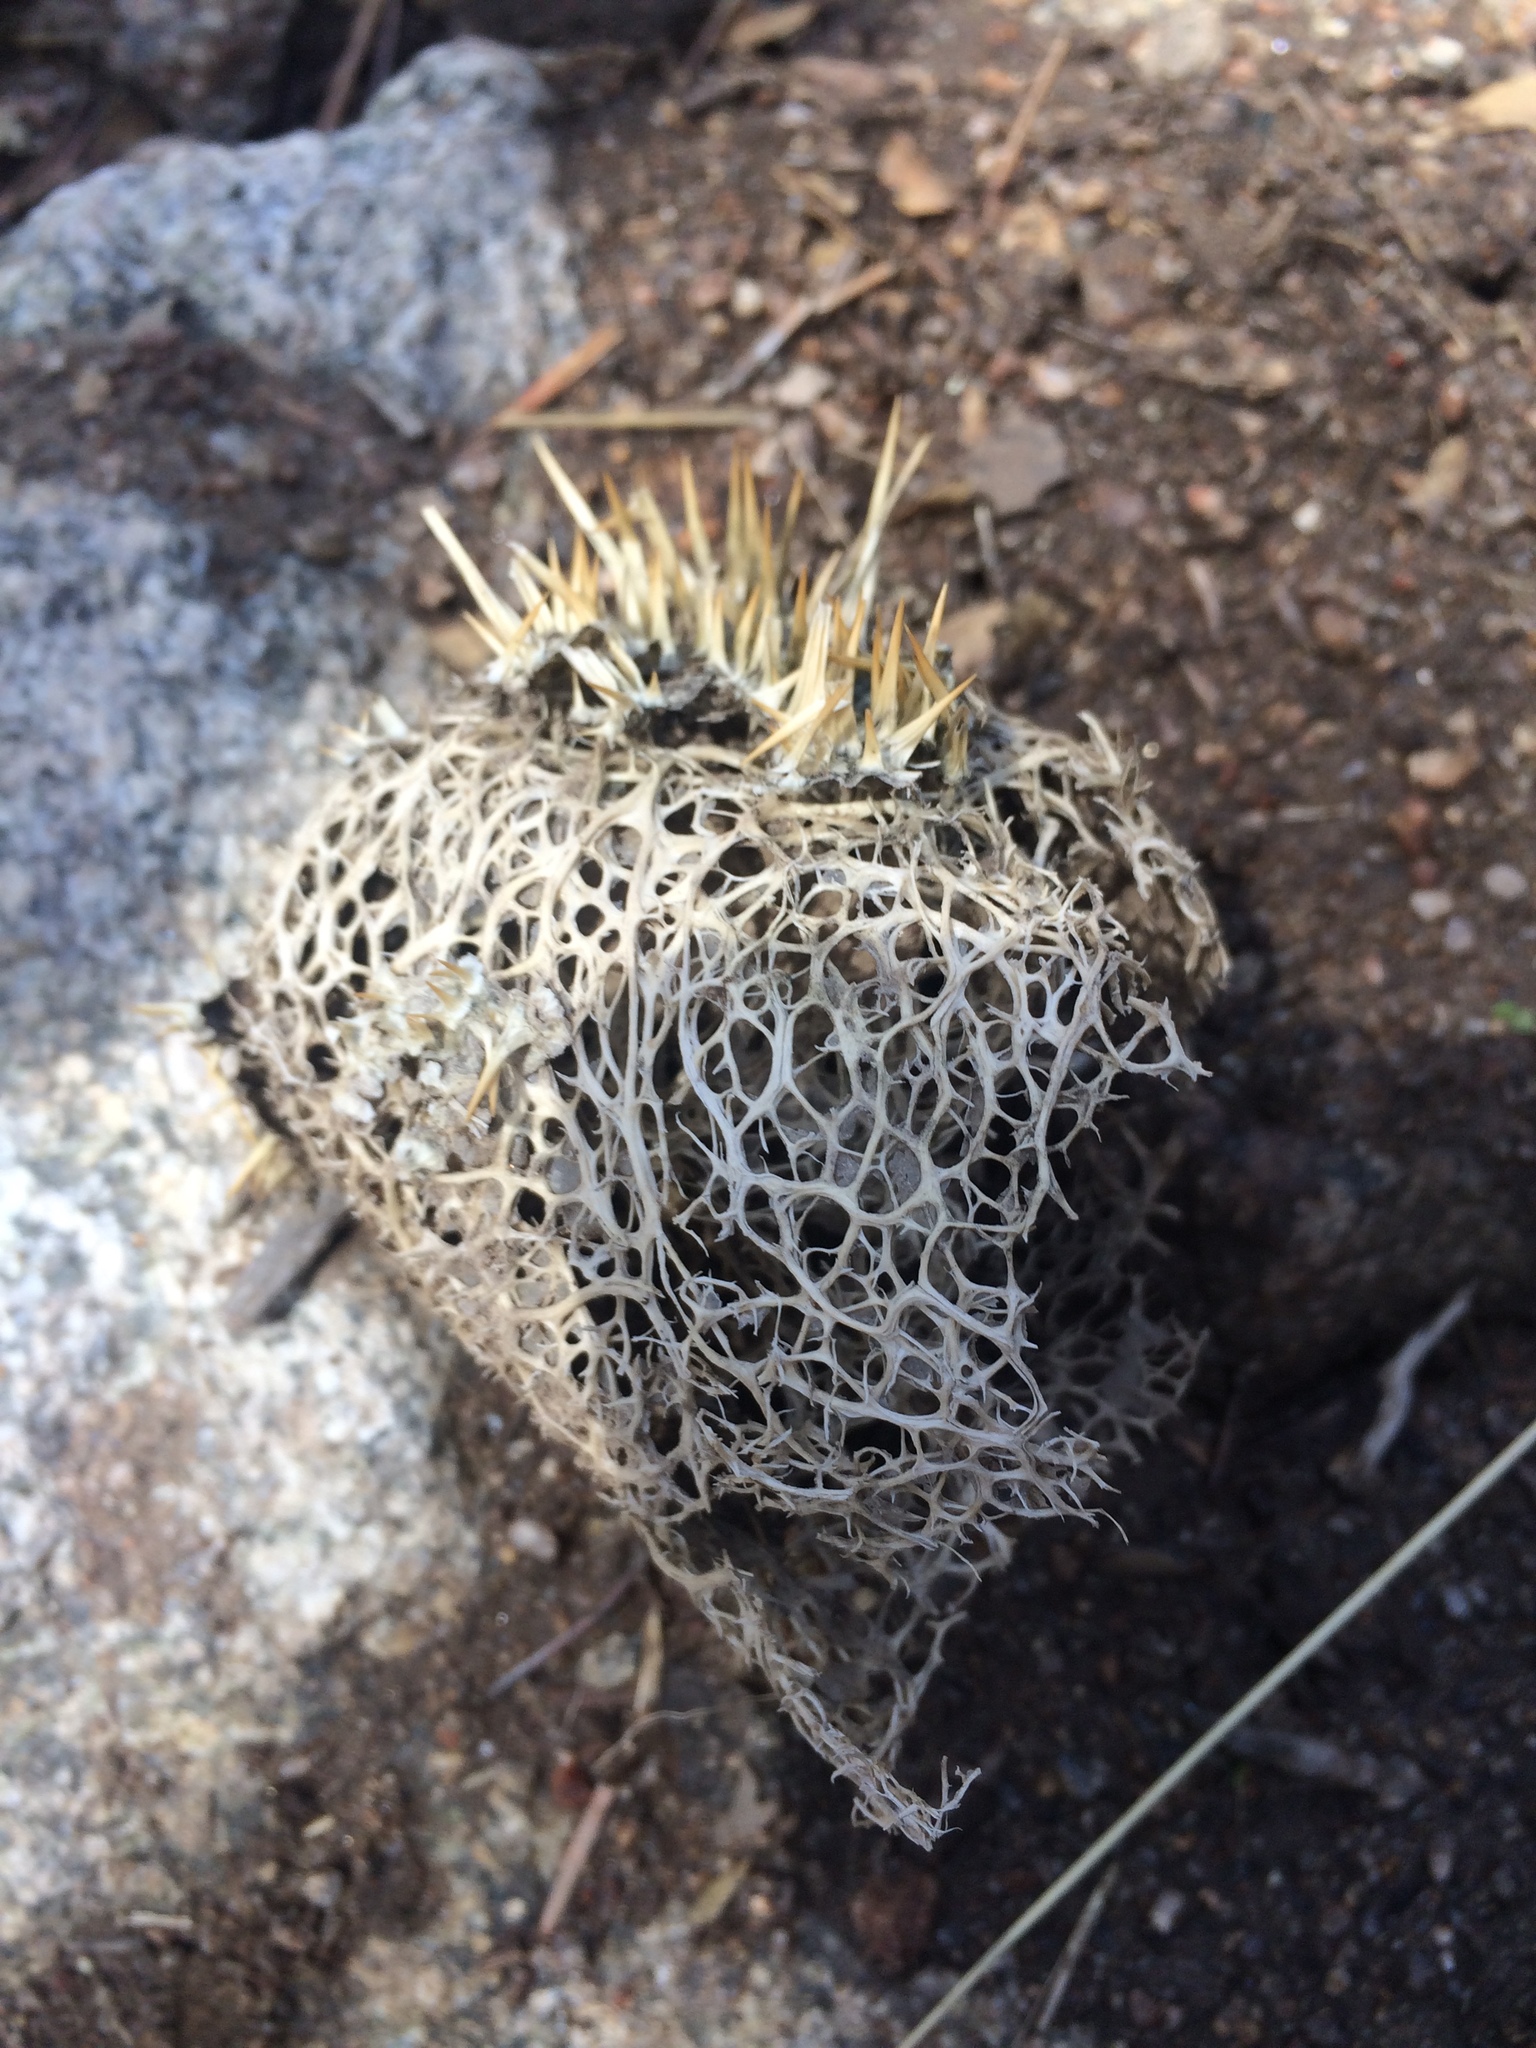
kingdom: Plantae
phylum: Tracheophyta
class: Magnoliopsida
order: Cucurbitales
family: Cucurbitaceae
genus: Marah
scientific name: Marah horrida
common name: Sierra manroot
